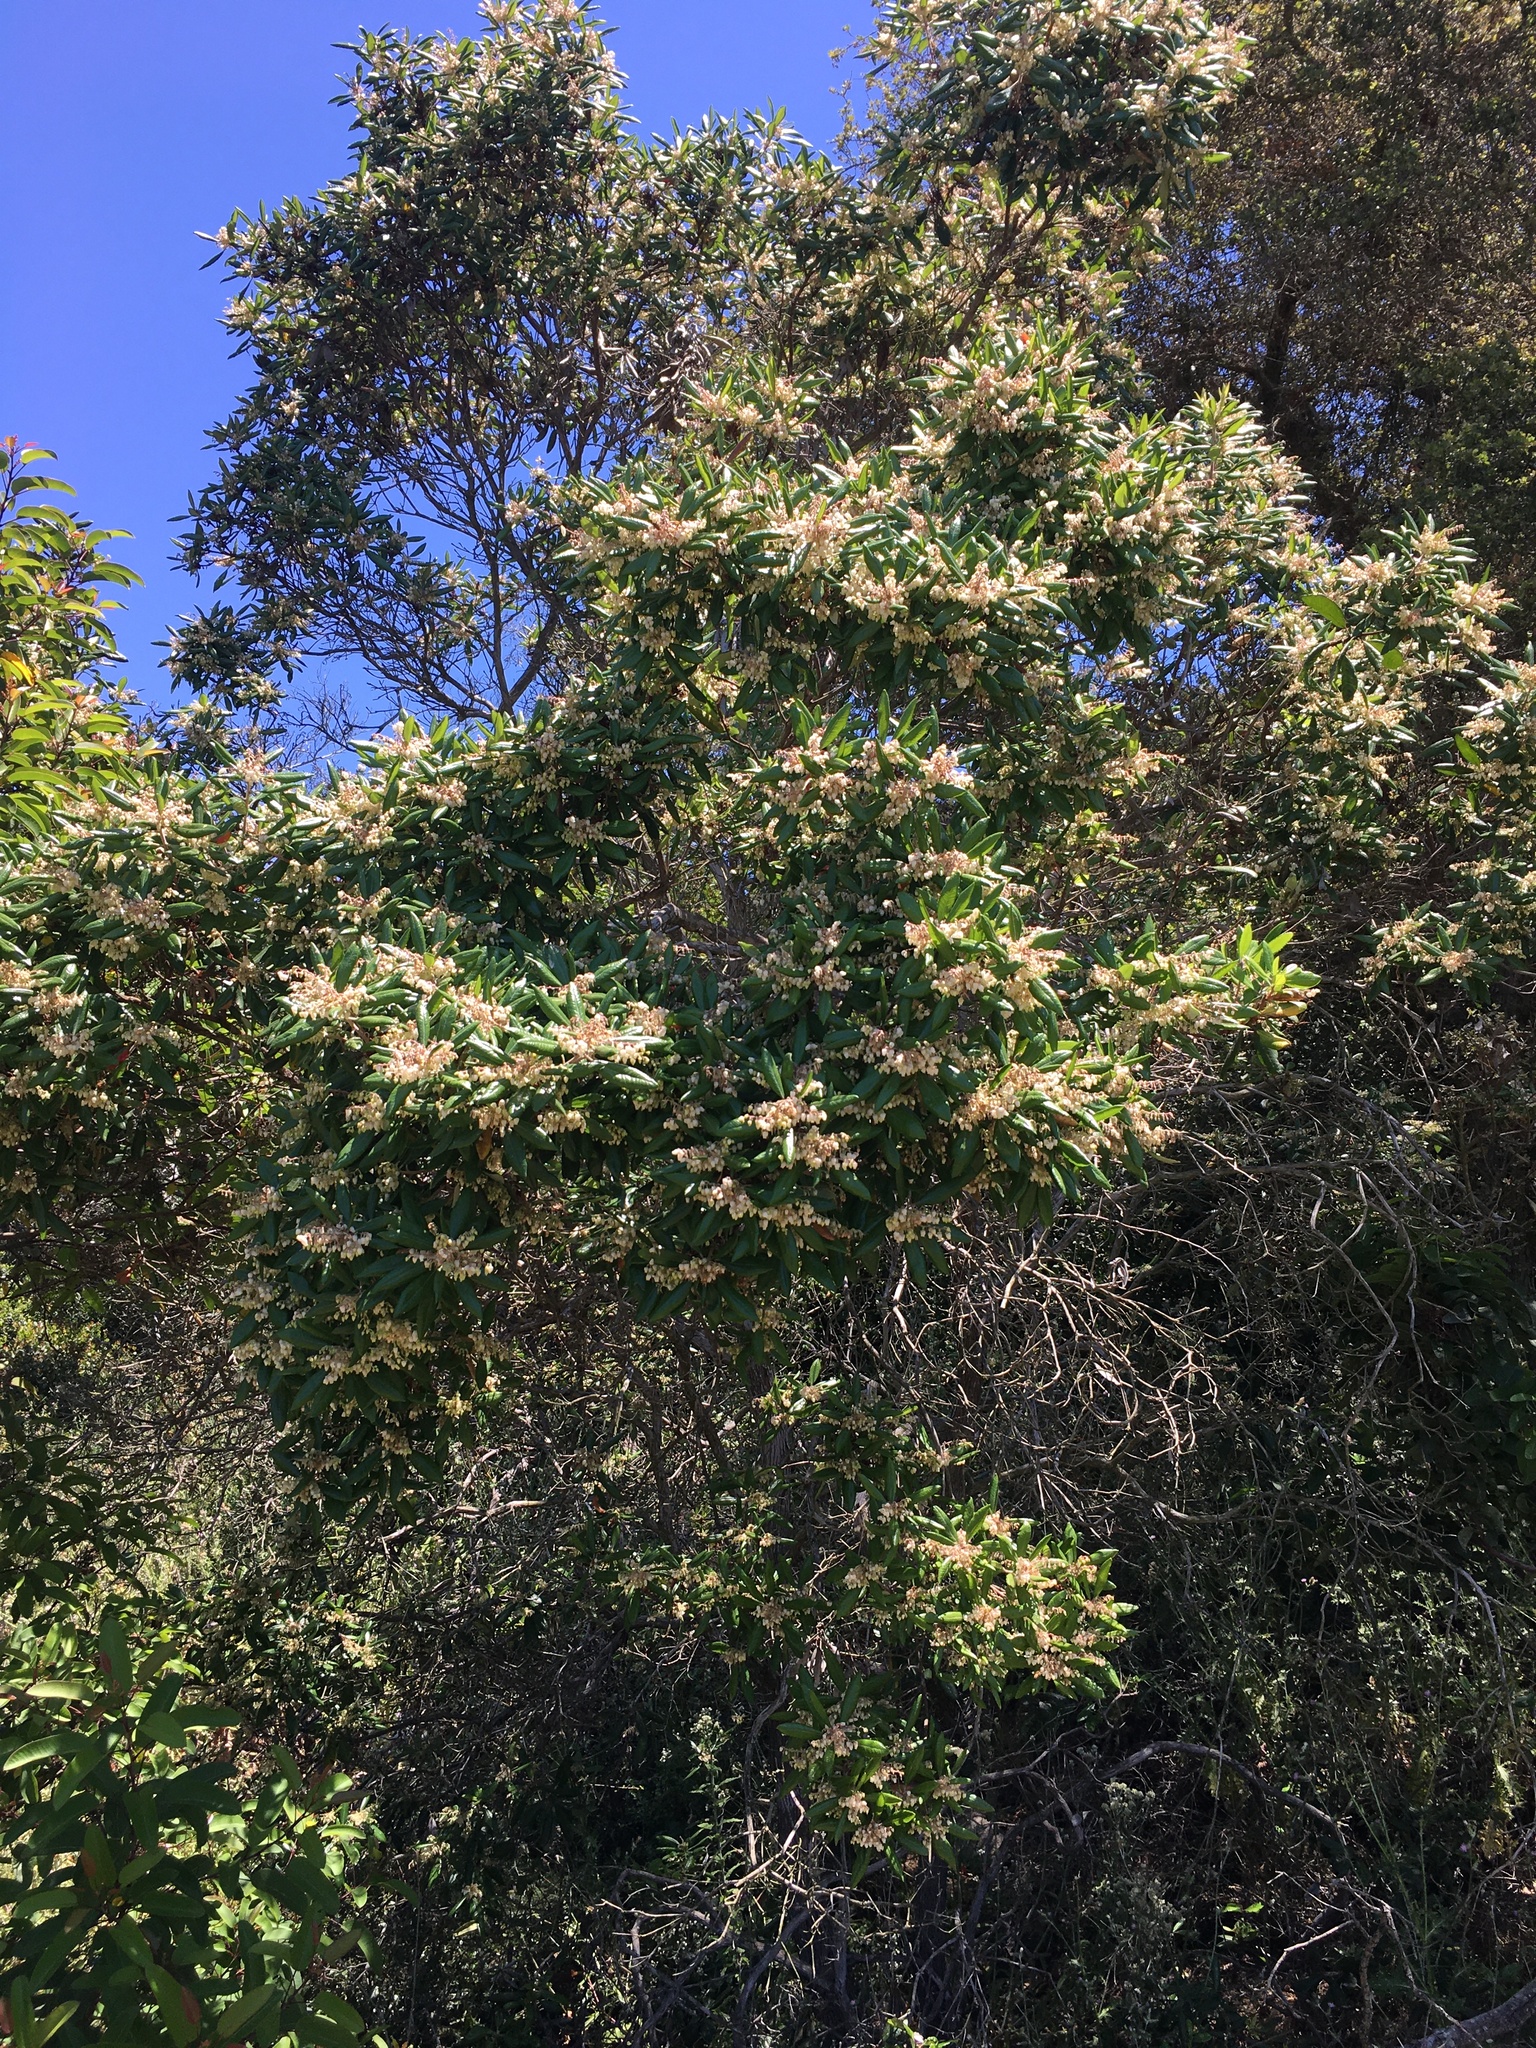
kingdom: Plantae
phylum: Tracheophyta
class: Magnoliopsida
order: Ericales
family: Ericaceae
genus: Comarostaphylis
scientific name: Comarostaphylis diversifolia
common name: Summer-holly
